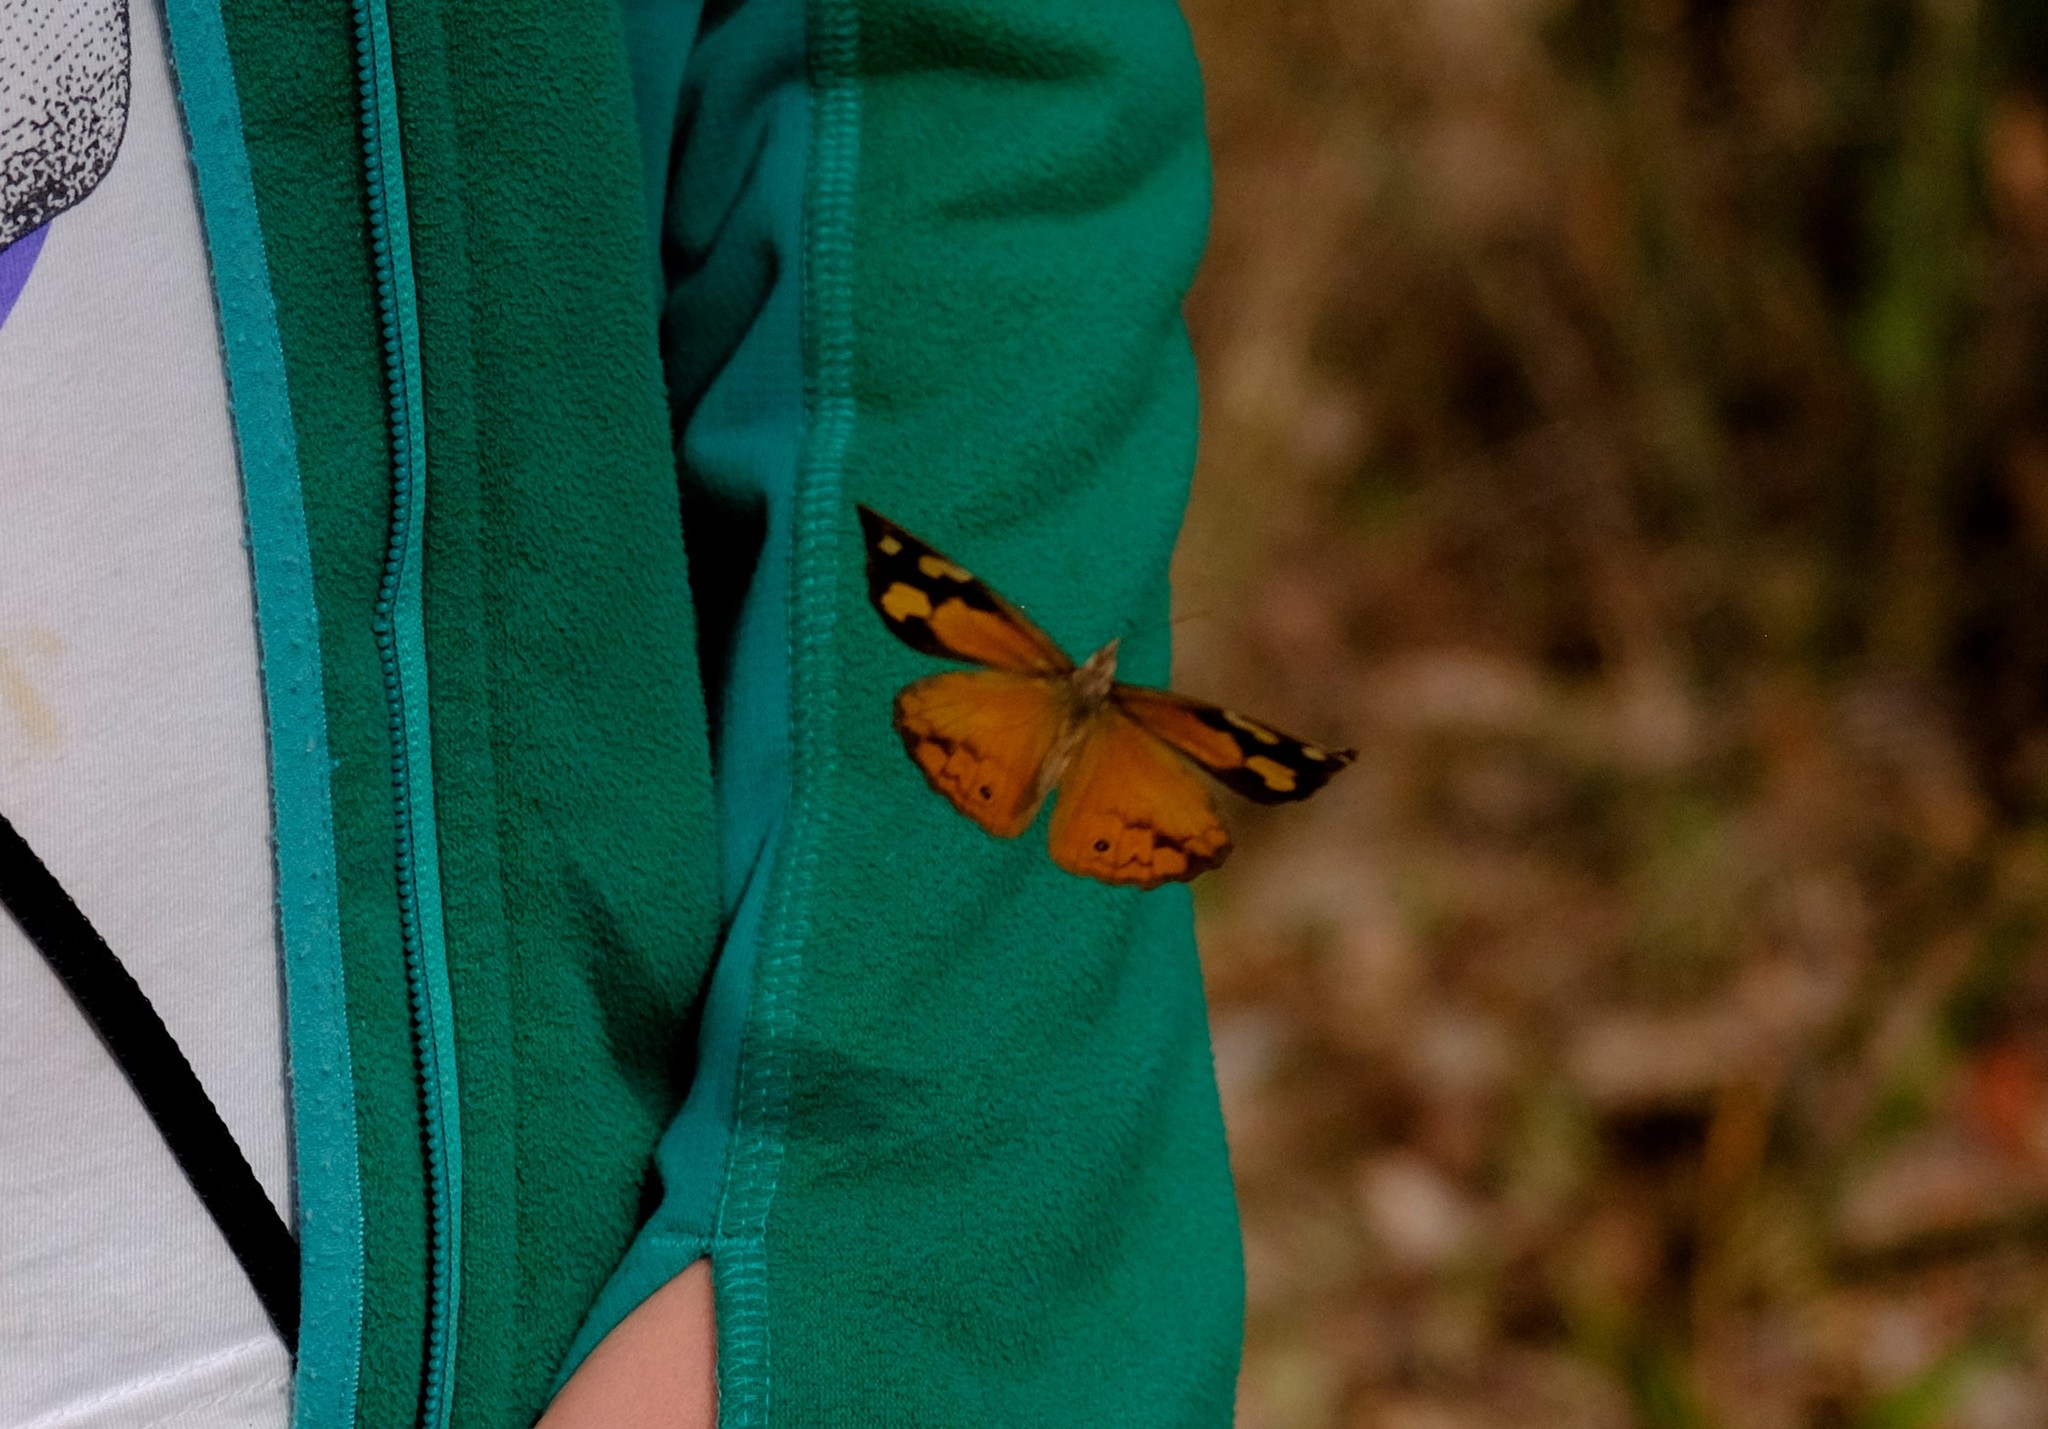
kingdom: Animalia
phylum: Arthropoda
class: Insecta
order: Lepidoptera
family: Nymphalidae
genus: Heteronympha
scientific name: Heteronympha merope
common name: Common brown
